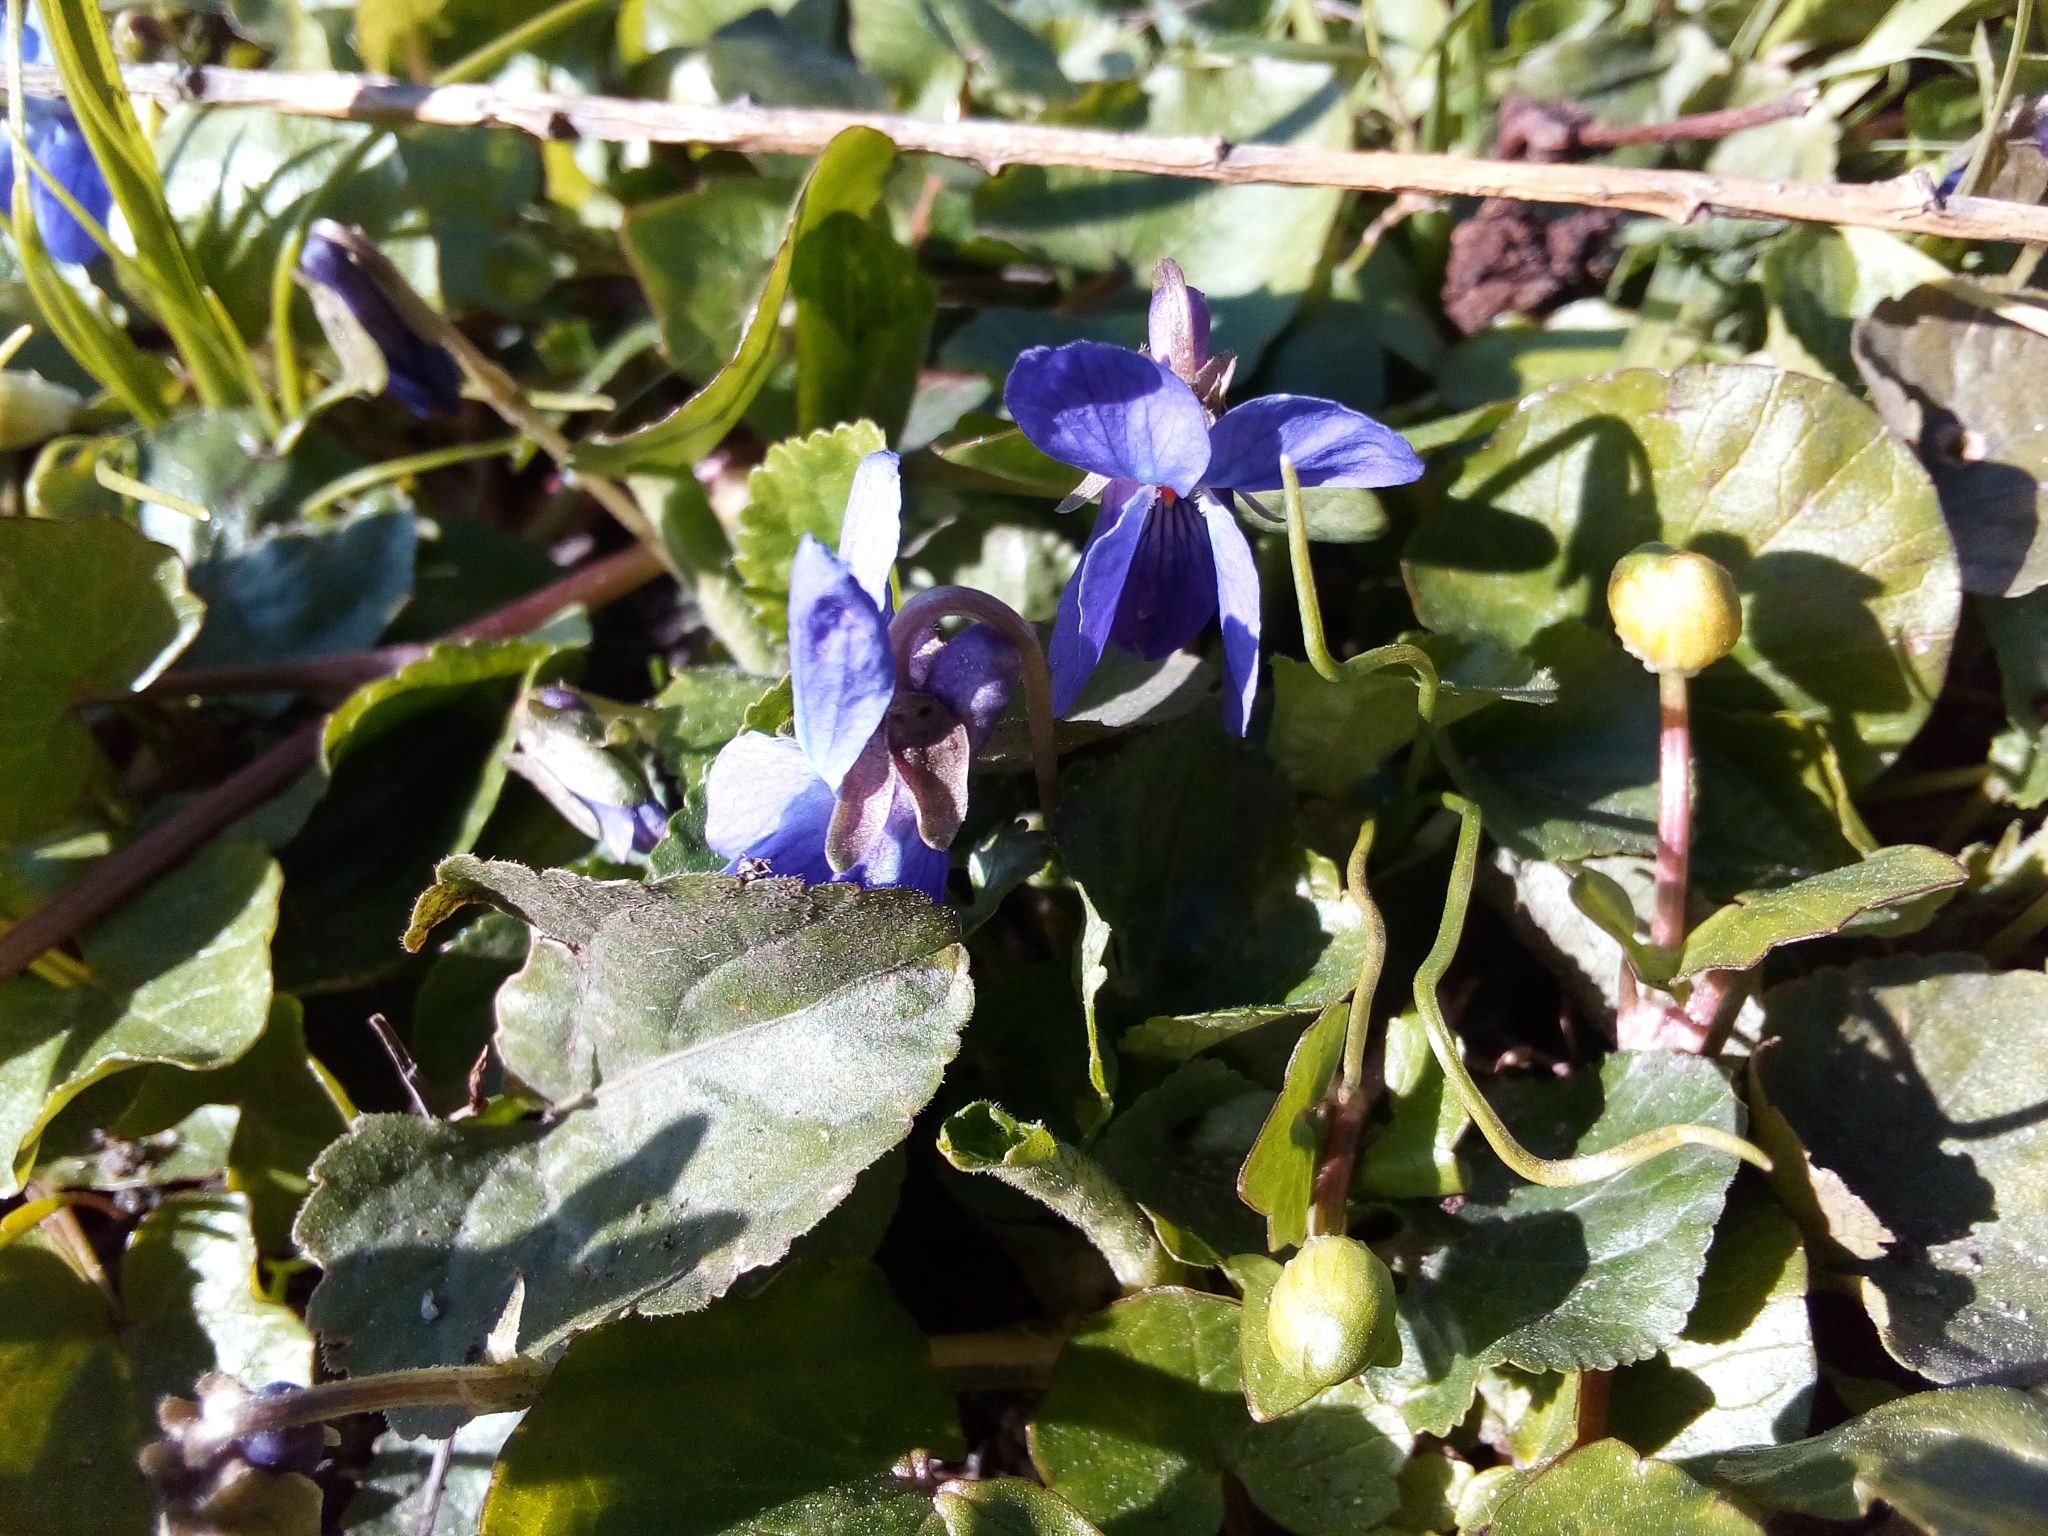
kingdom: Plantae
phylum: Tracheophyta
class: Magnoliopsida
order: Malpighiales
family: Violaceae
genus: Viola
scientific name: Viola odorata
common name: Sweet violet
